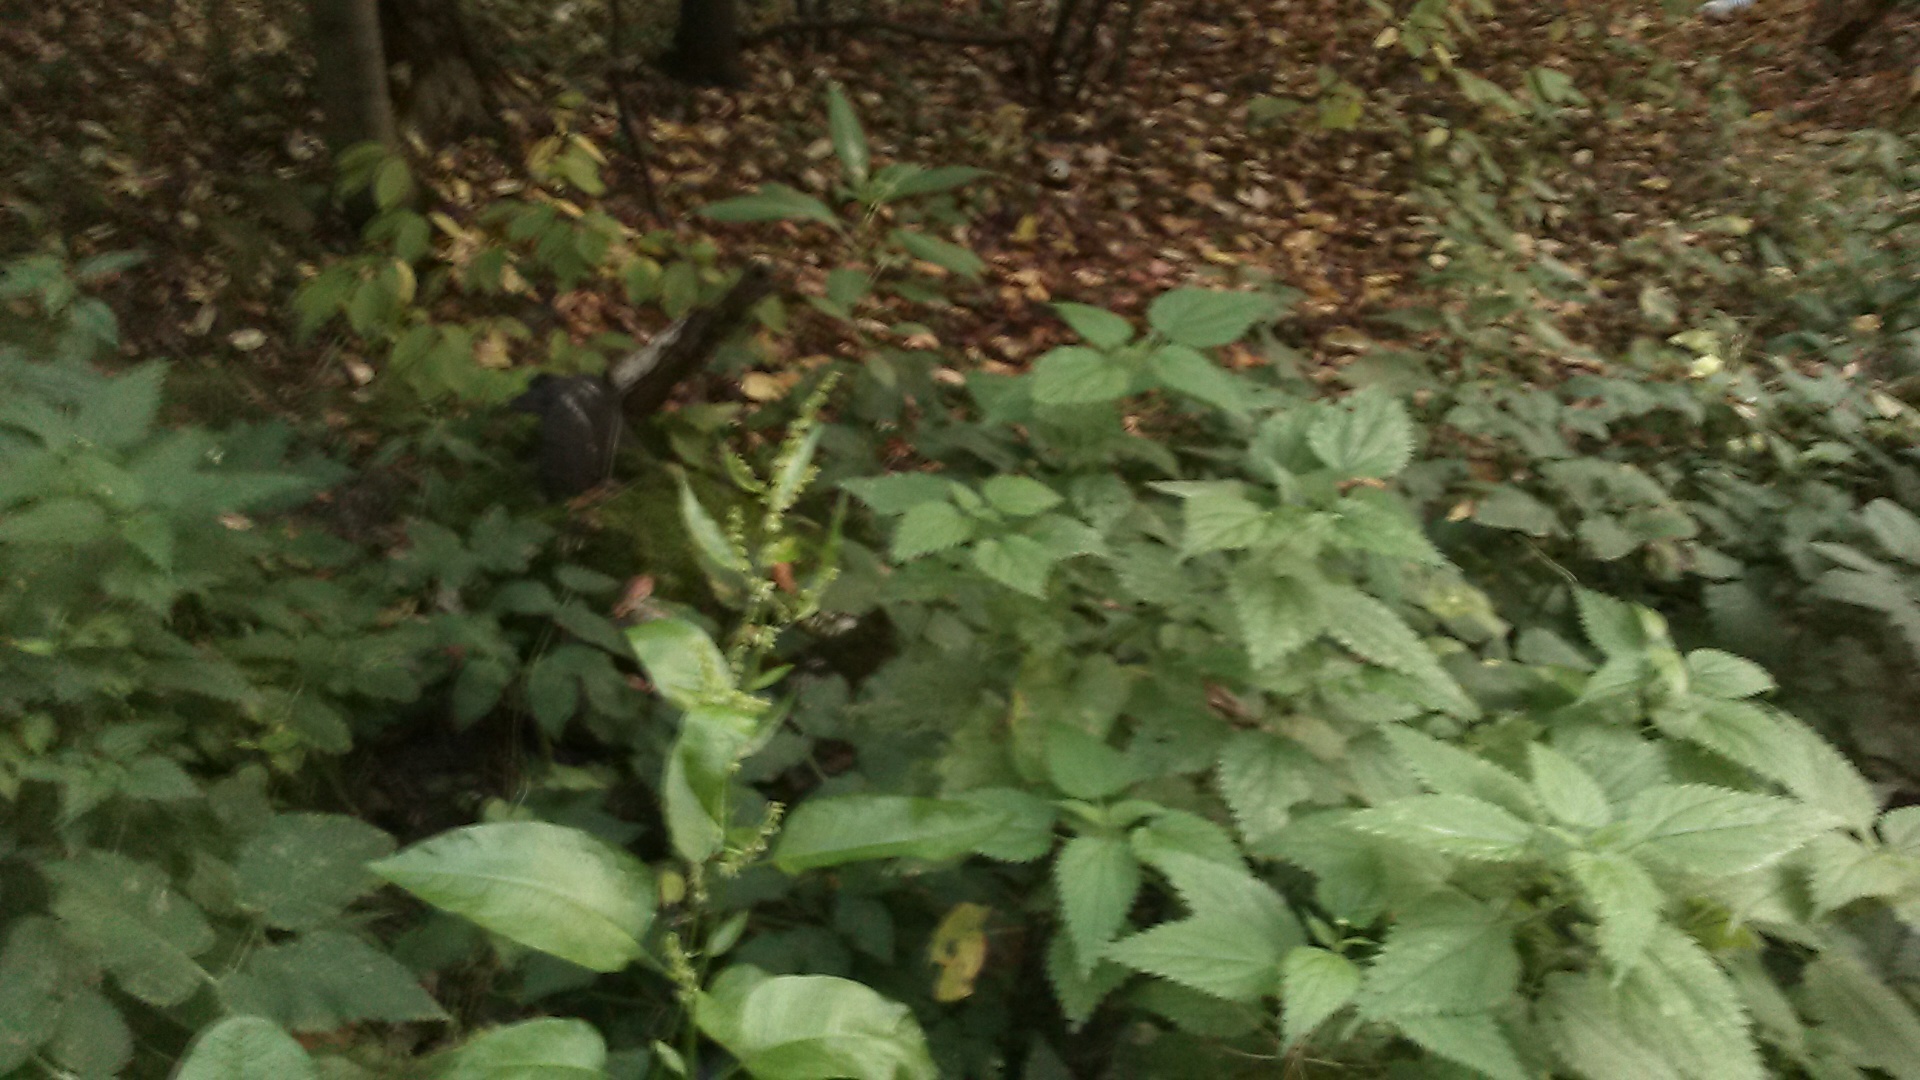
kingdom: Plantae
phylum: Tracheophyta
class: Magnoliopsida
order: Caryophyllales
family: Polygonaceae
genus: Rumex
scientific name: Rumex obtusifolius
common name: Bitter dock
